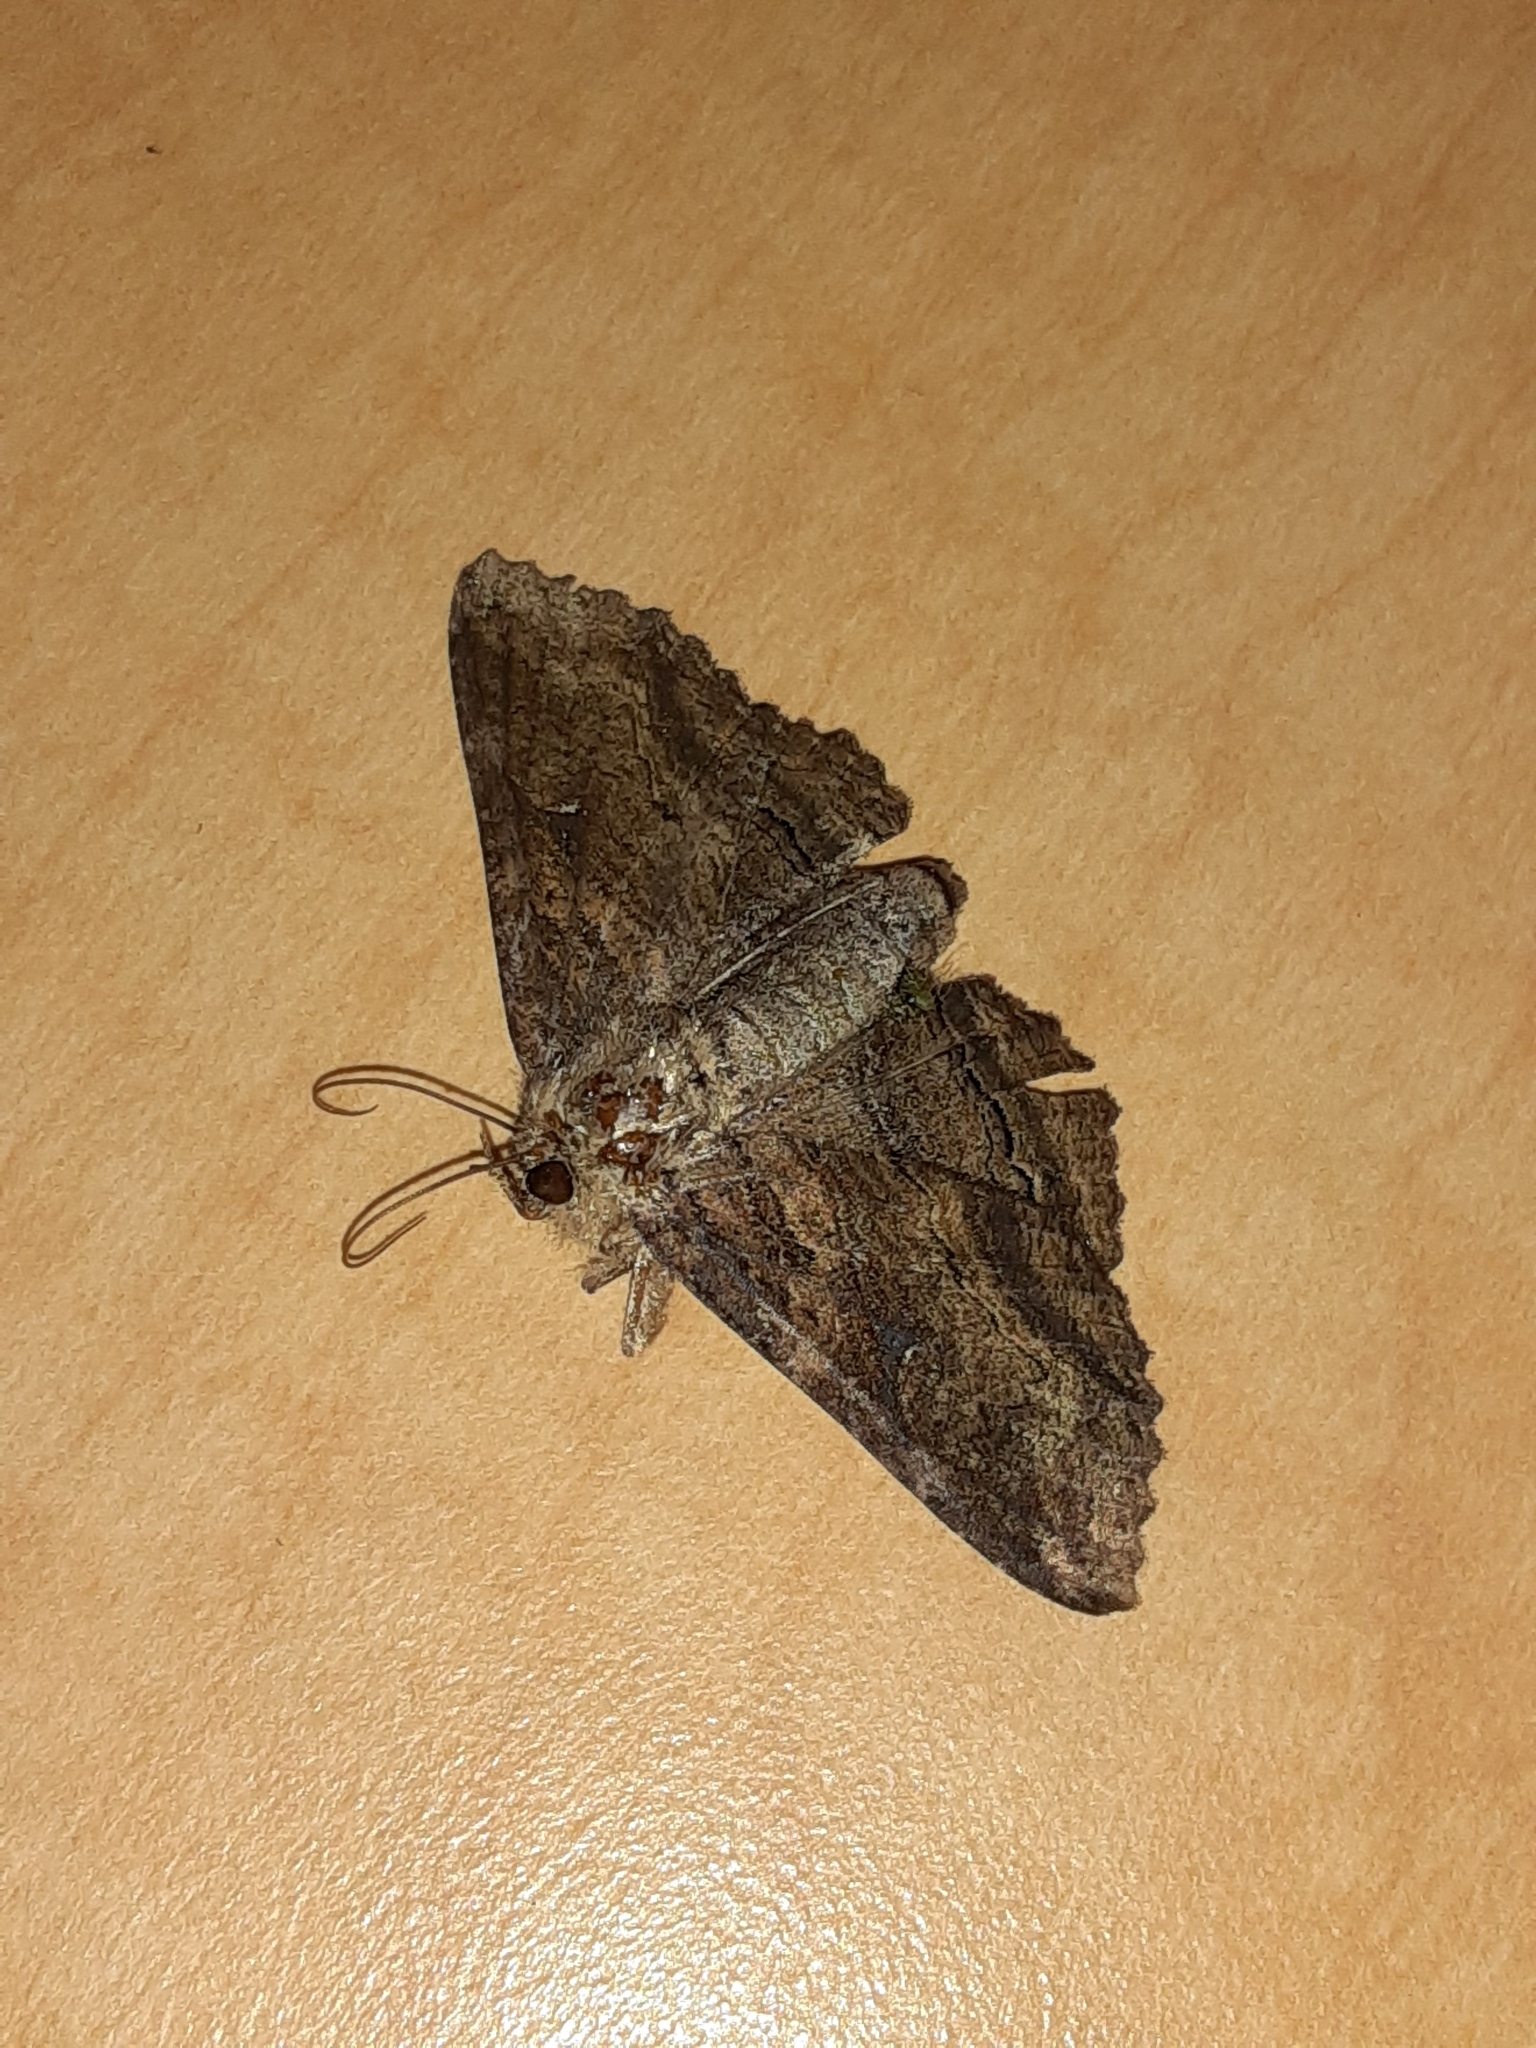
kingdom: Animalia
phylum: Arthropoda
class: Insecta
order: Lepidoptera
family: Erebidae
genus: Zale
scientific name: Zale lunata
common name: Lunate zale moth
